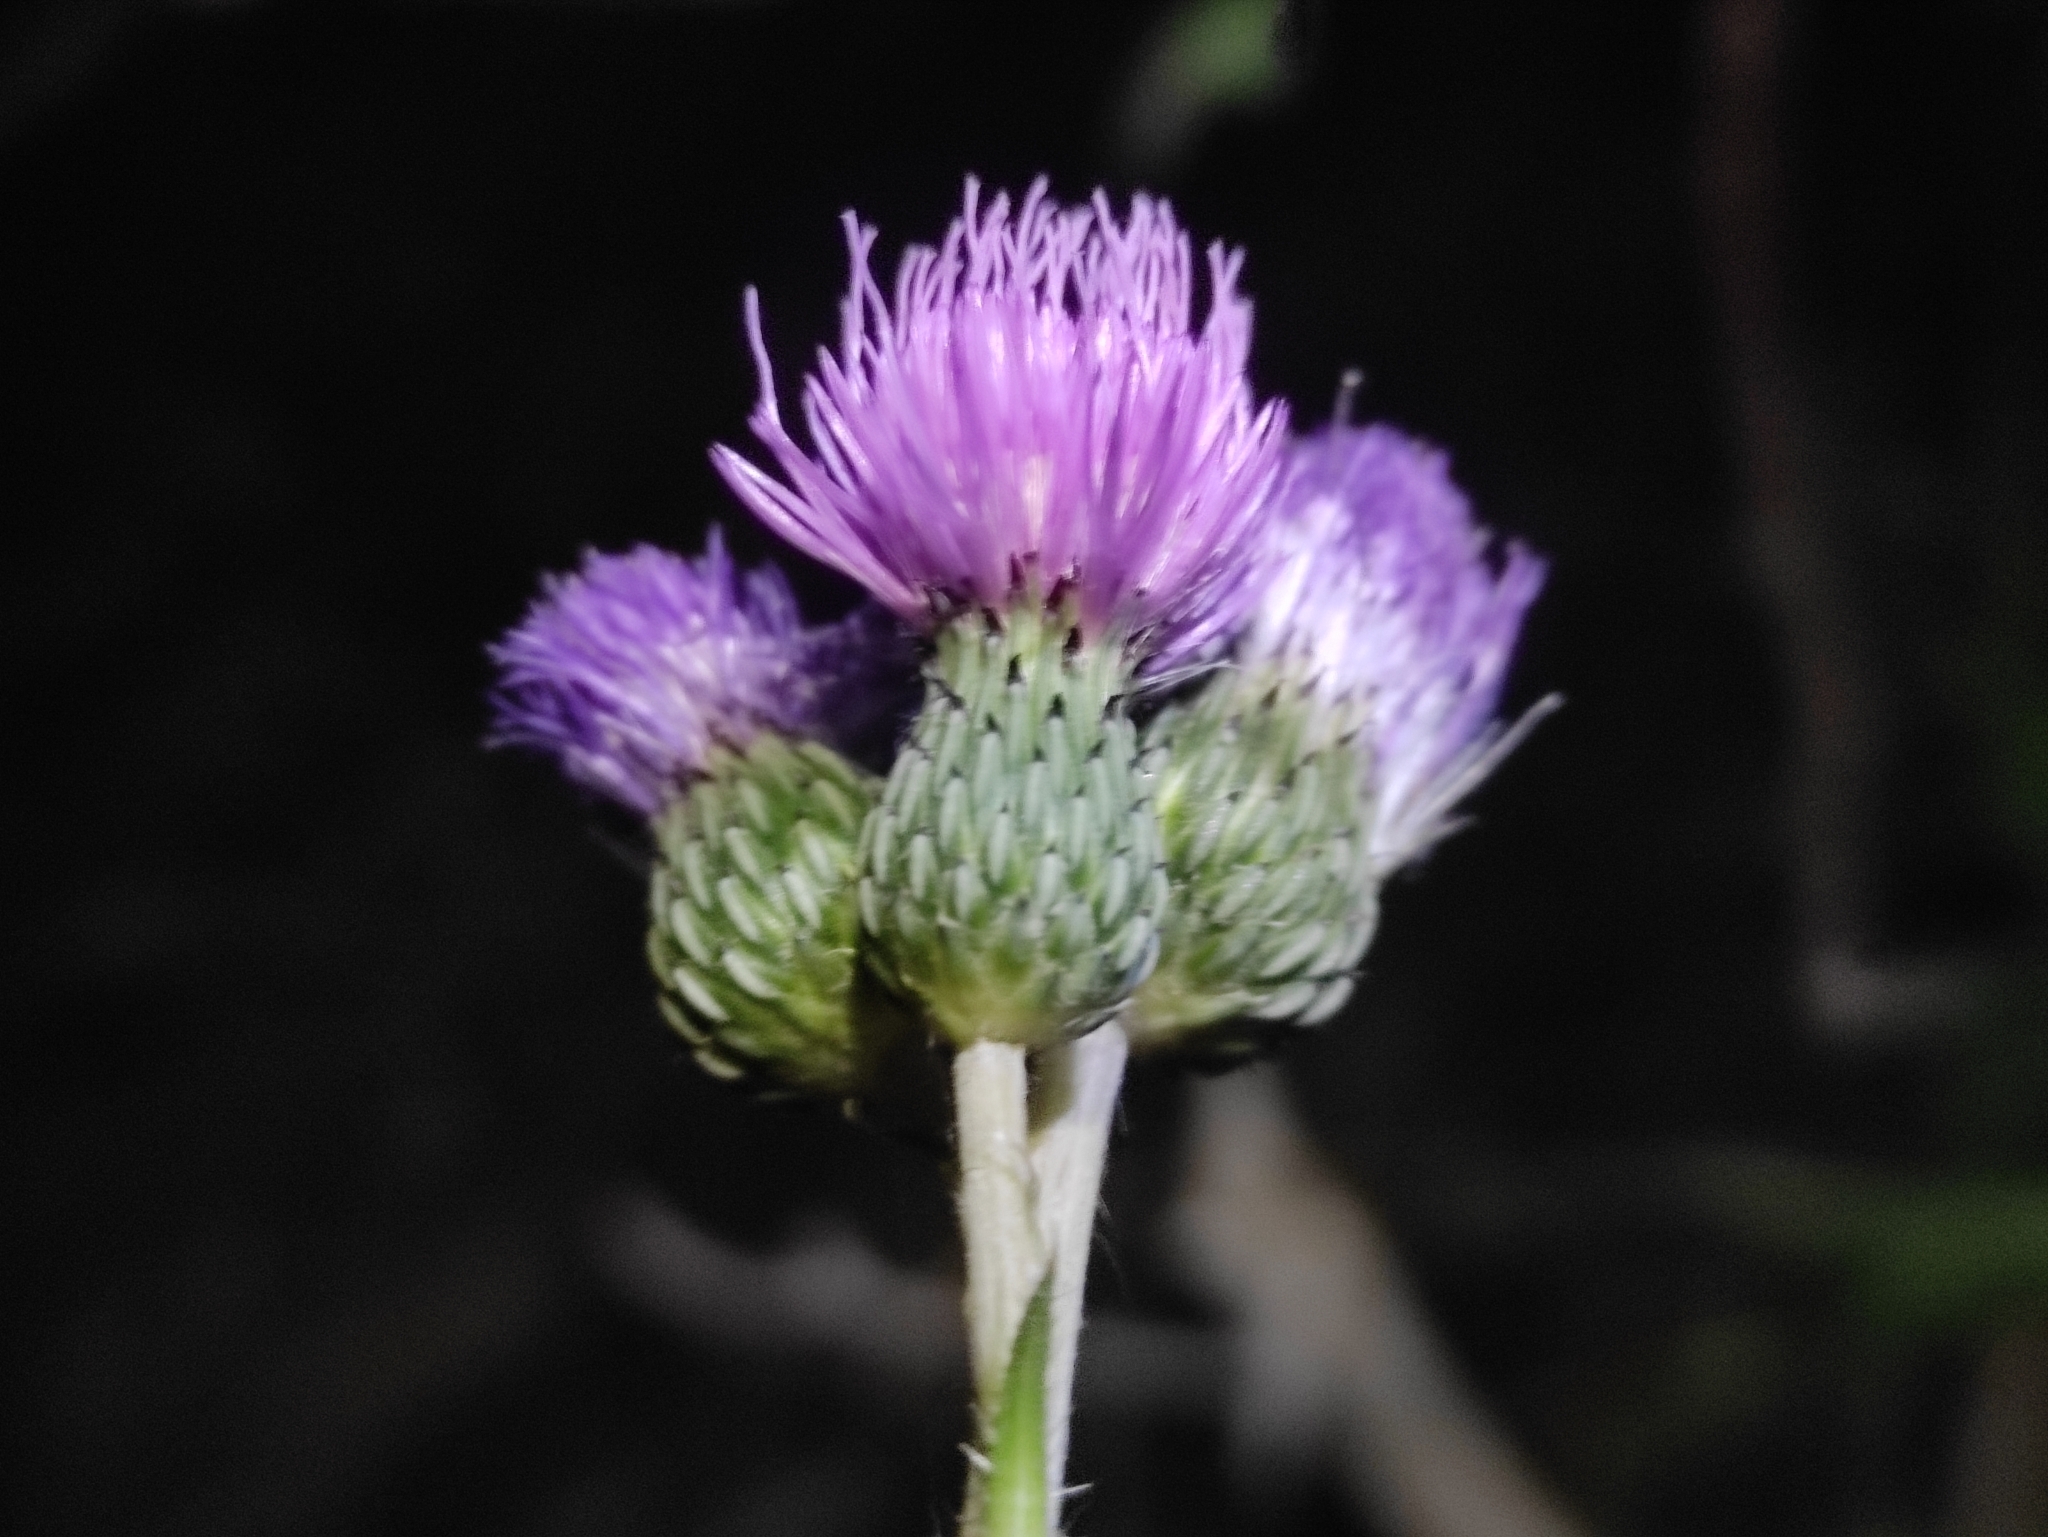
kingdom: Plantae
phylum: Tracheophyta
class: Magnoliopsida
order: Asterales
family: Asteraceae
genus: Cirsium
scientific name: Cirsium monspessulanum
